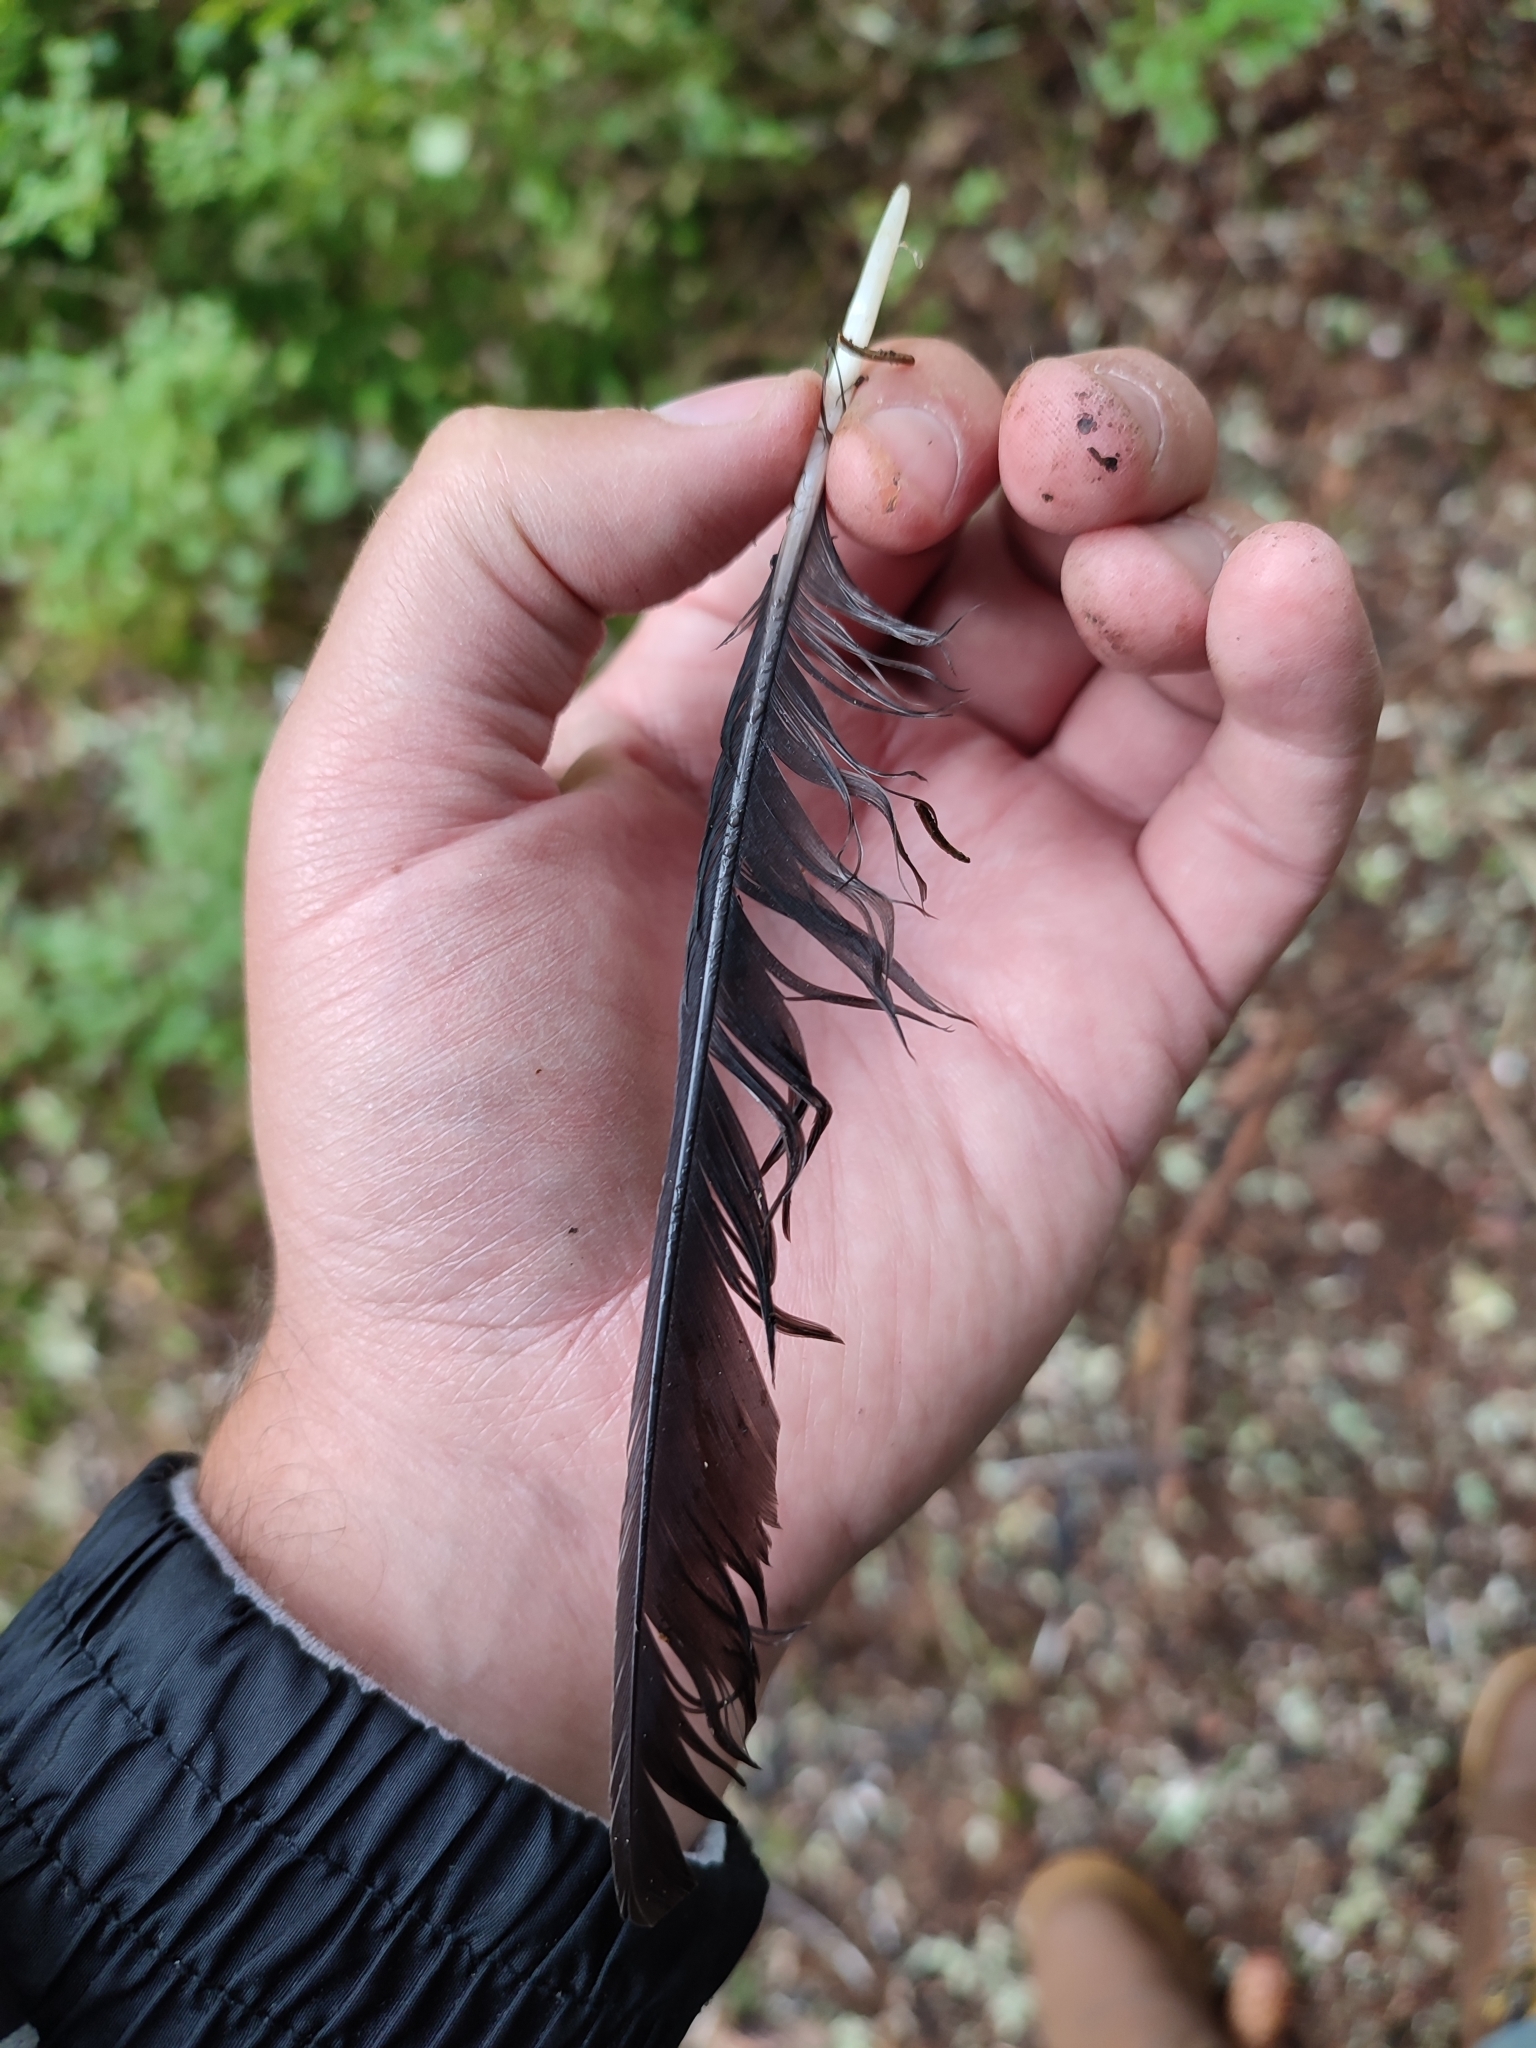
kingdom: Animalia
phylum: Chordata
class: Aves
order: Passeriformes
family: Corvidae
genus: Nucifraga
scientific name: Nucifraga caryocatactes
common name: Spotted nutcracker
